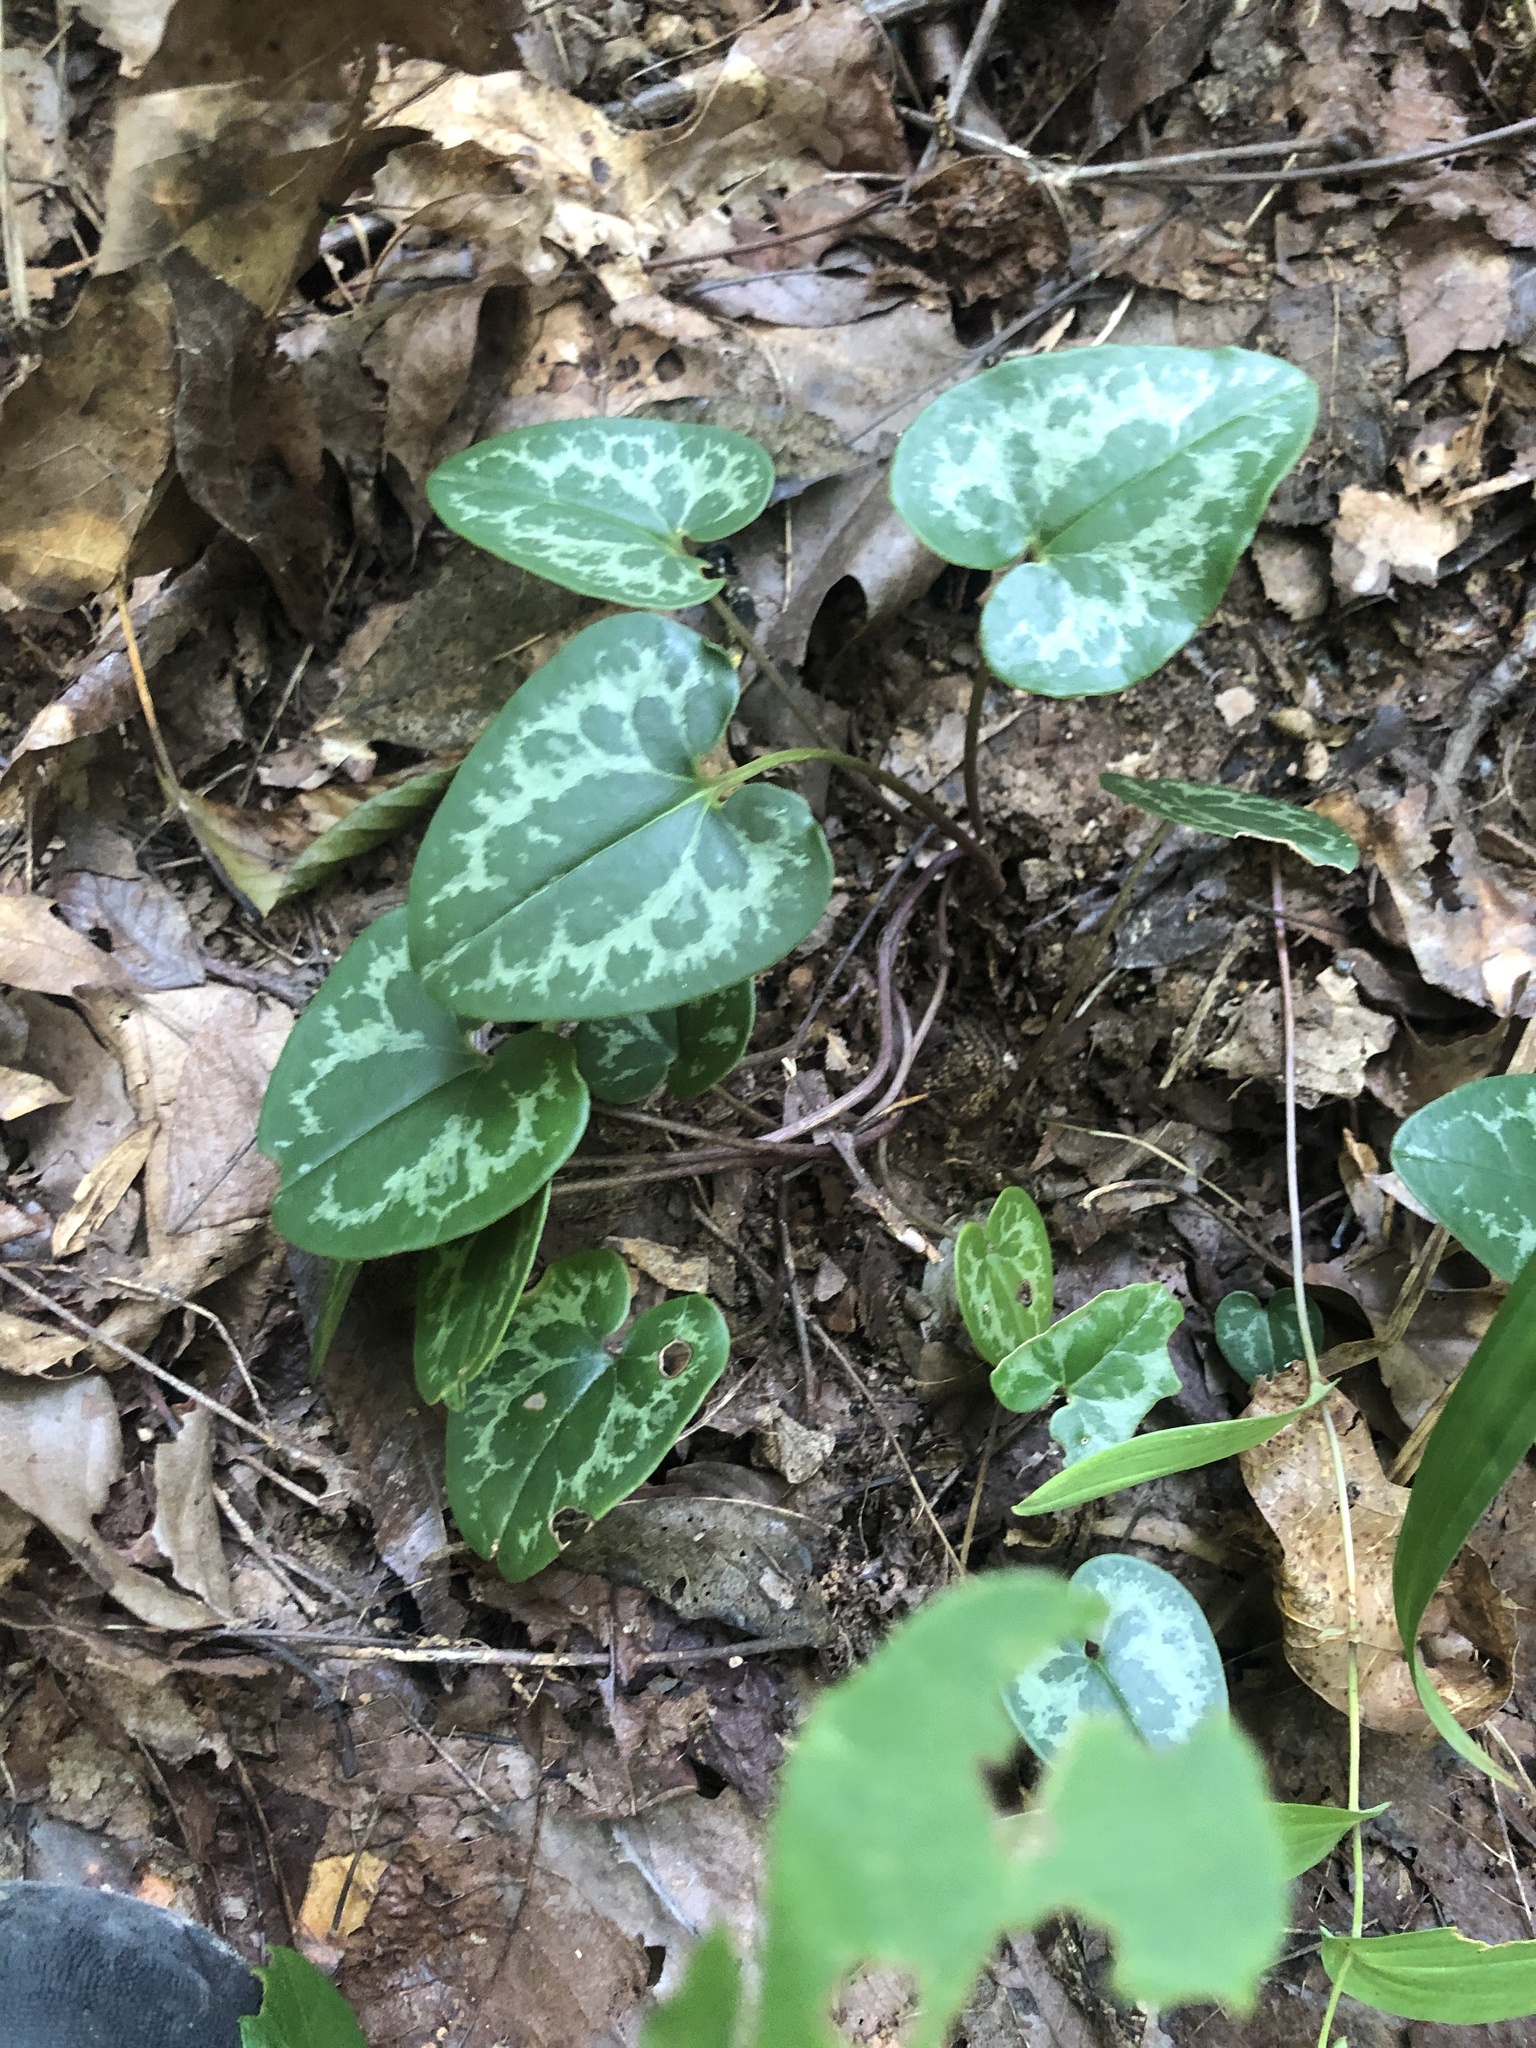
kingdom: Plantae
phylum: Tracheophyta
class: Magnoliopsida
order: Piperales
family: Aristolochiaceae
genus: Hexastylis
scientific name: Hexastylis lewisii
